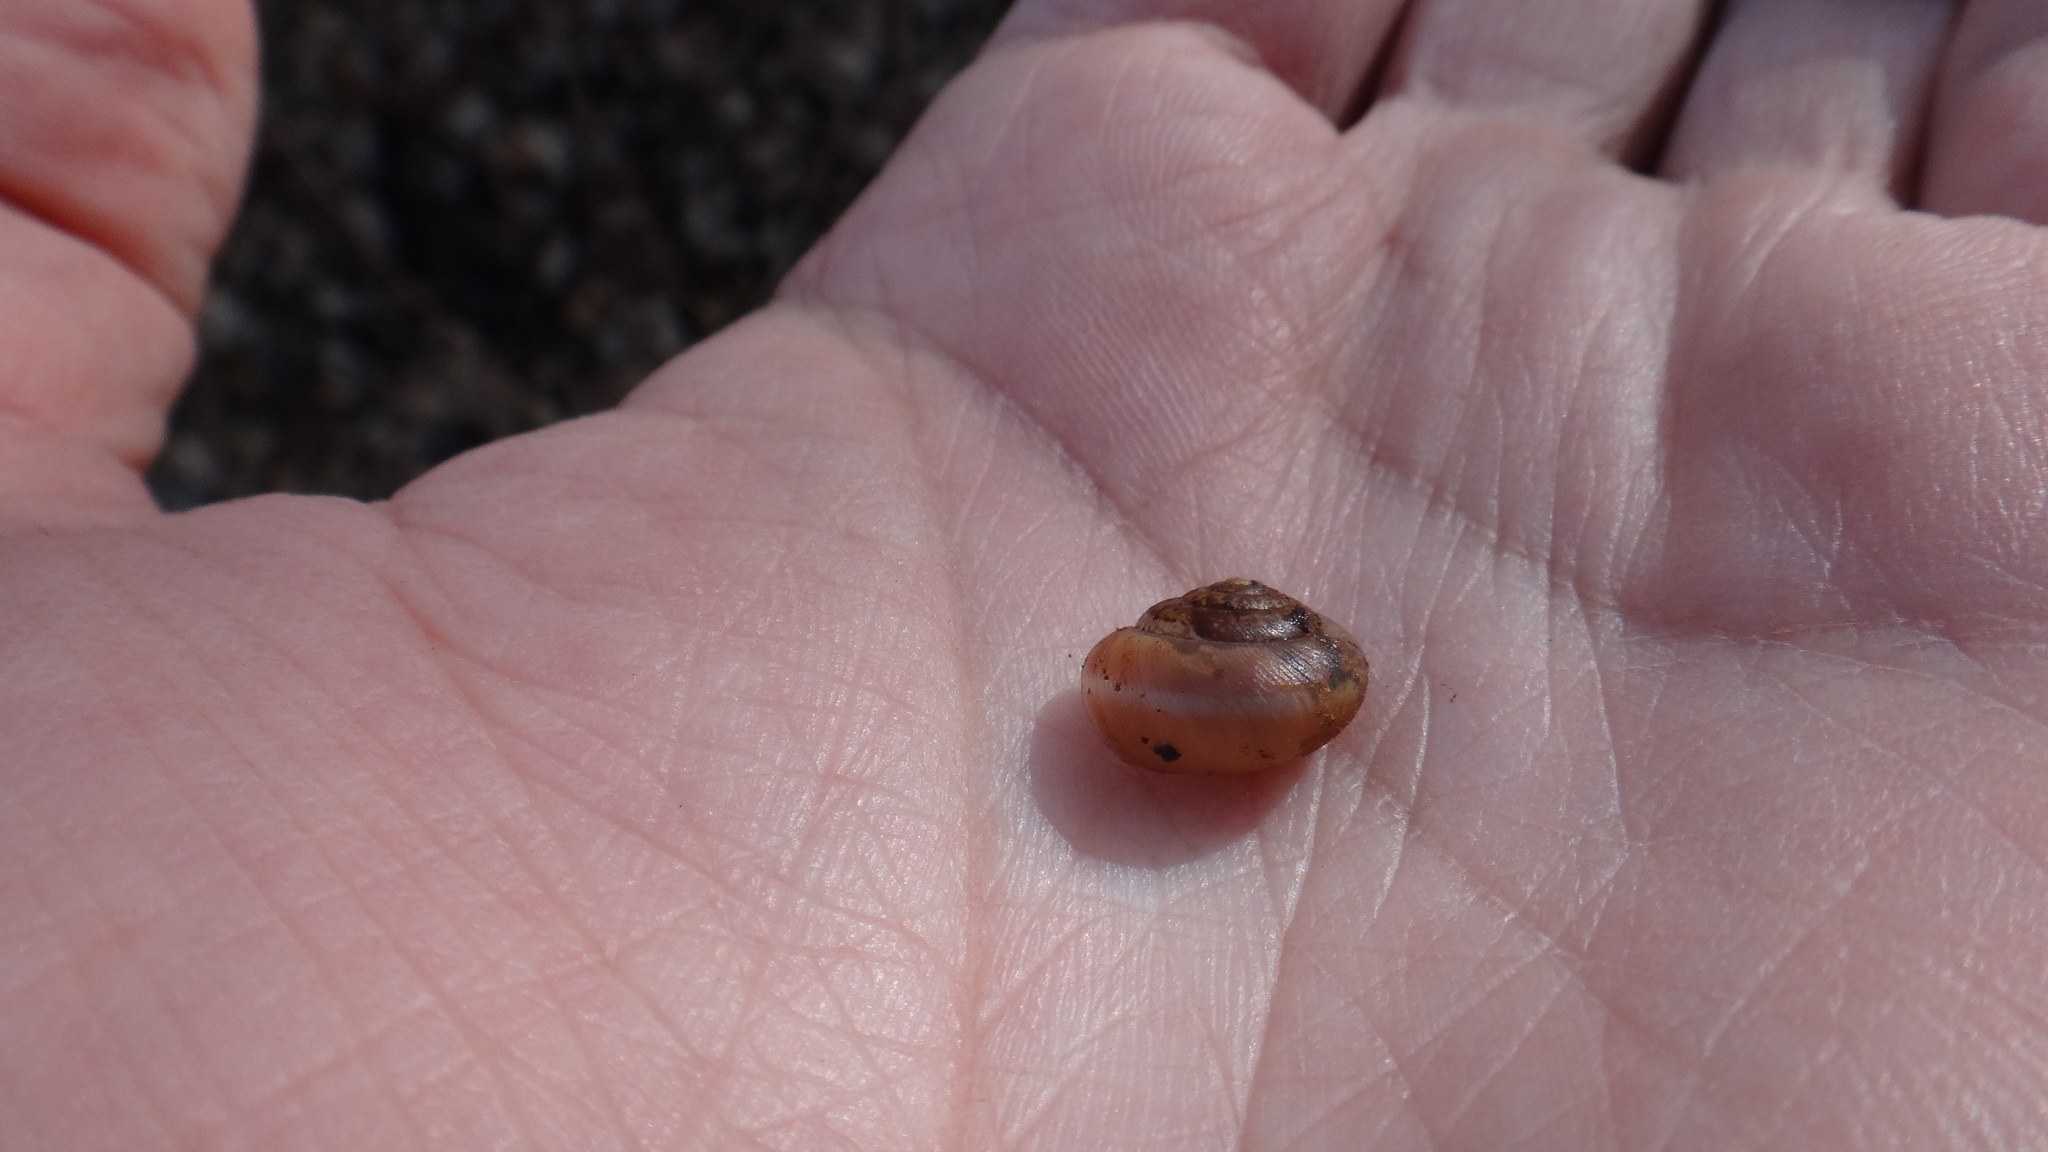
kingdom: Animalia
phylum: Mollusca
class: Gastropoda
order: Stylommatophora
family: Hygromiidae
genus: Euomphalia
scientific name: Euomphalia strigella
